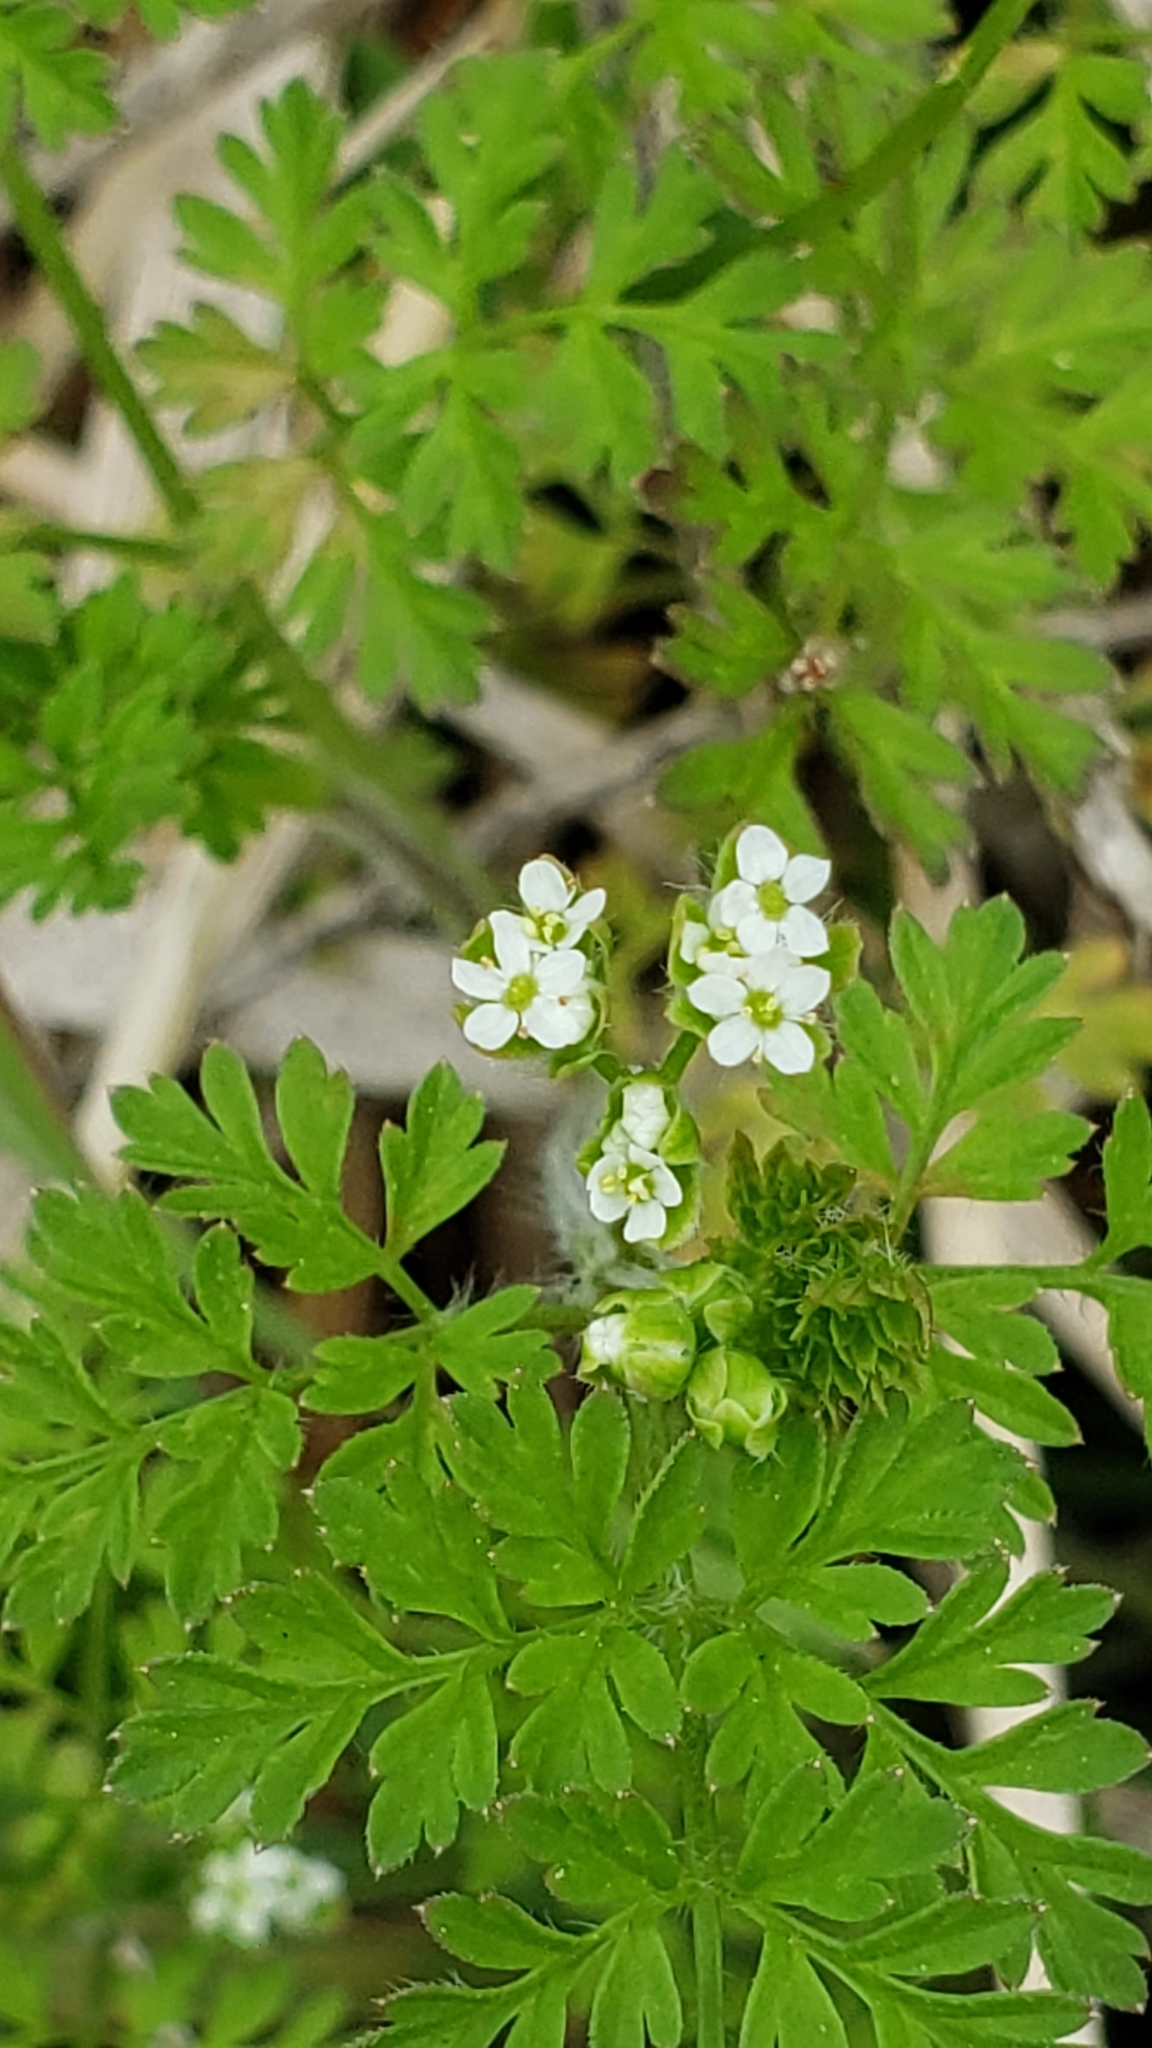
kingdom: Plantae
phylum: Tracheophyta
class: Magnoliopsida
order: Apiales
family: Apiaceae
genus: Chaerophyllum
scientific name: Chaerophyllum tainturieri
